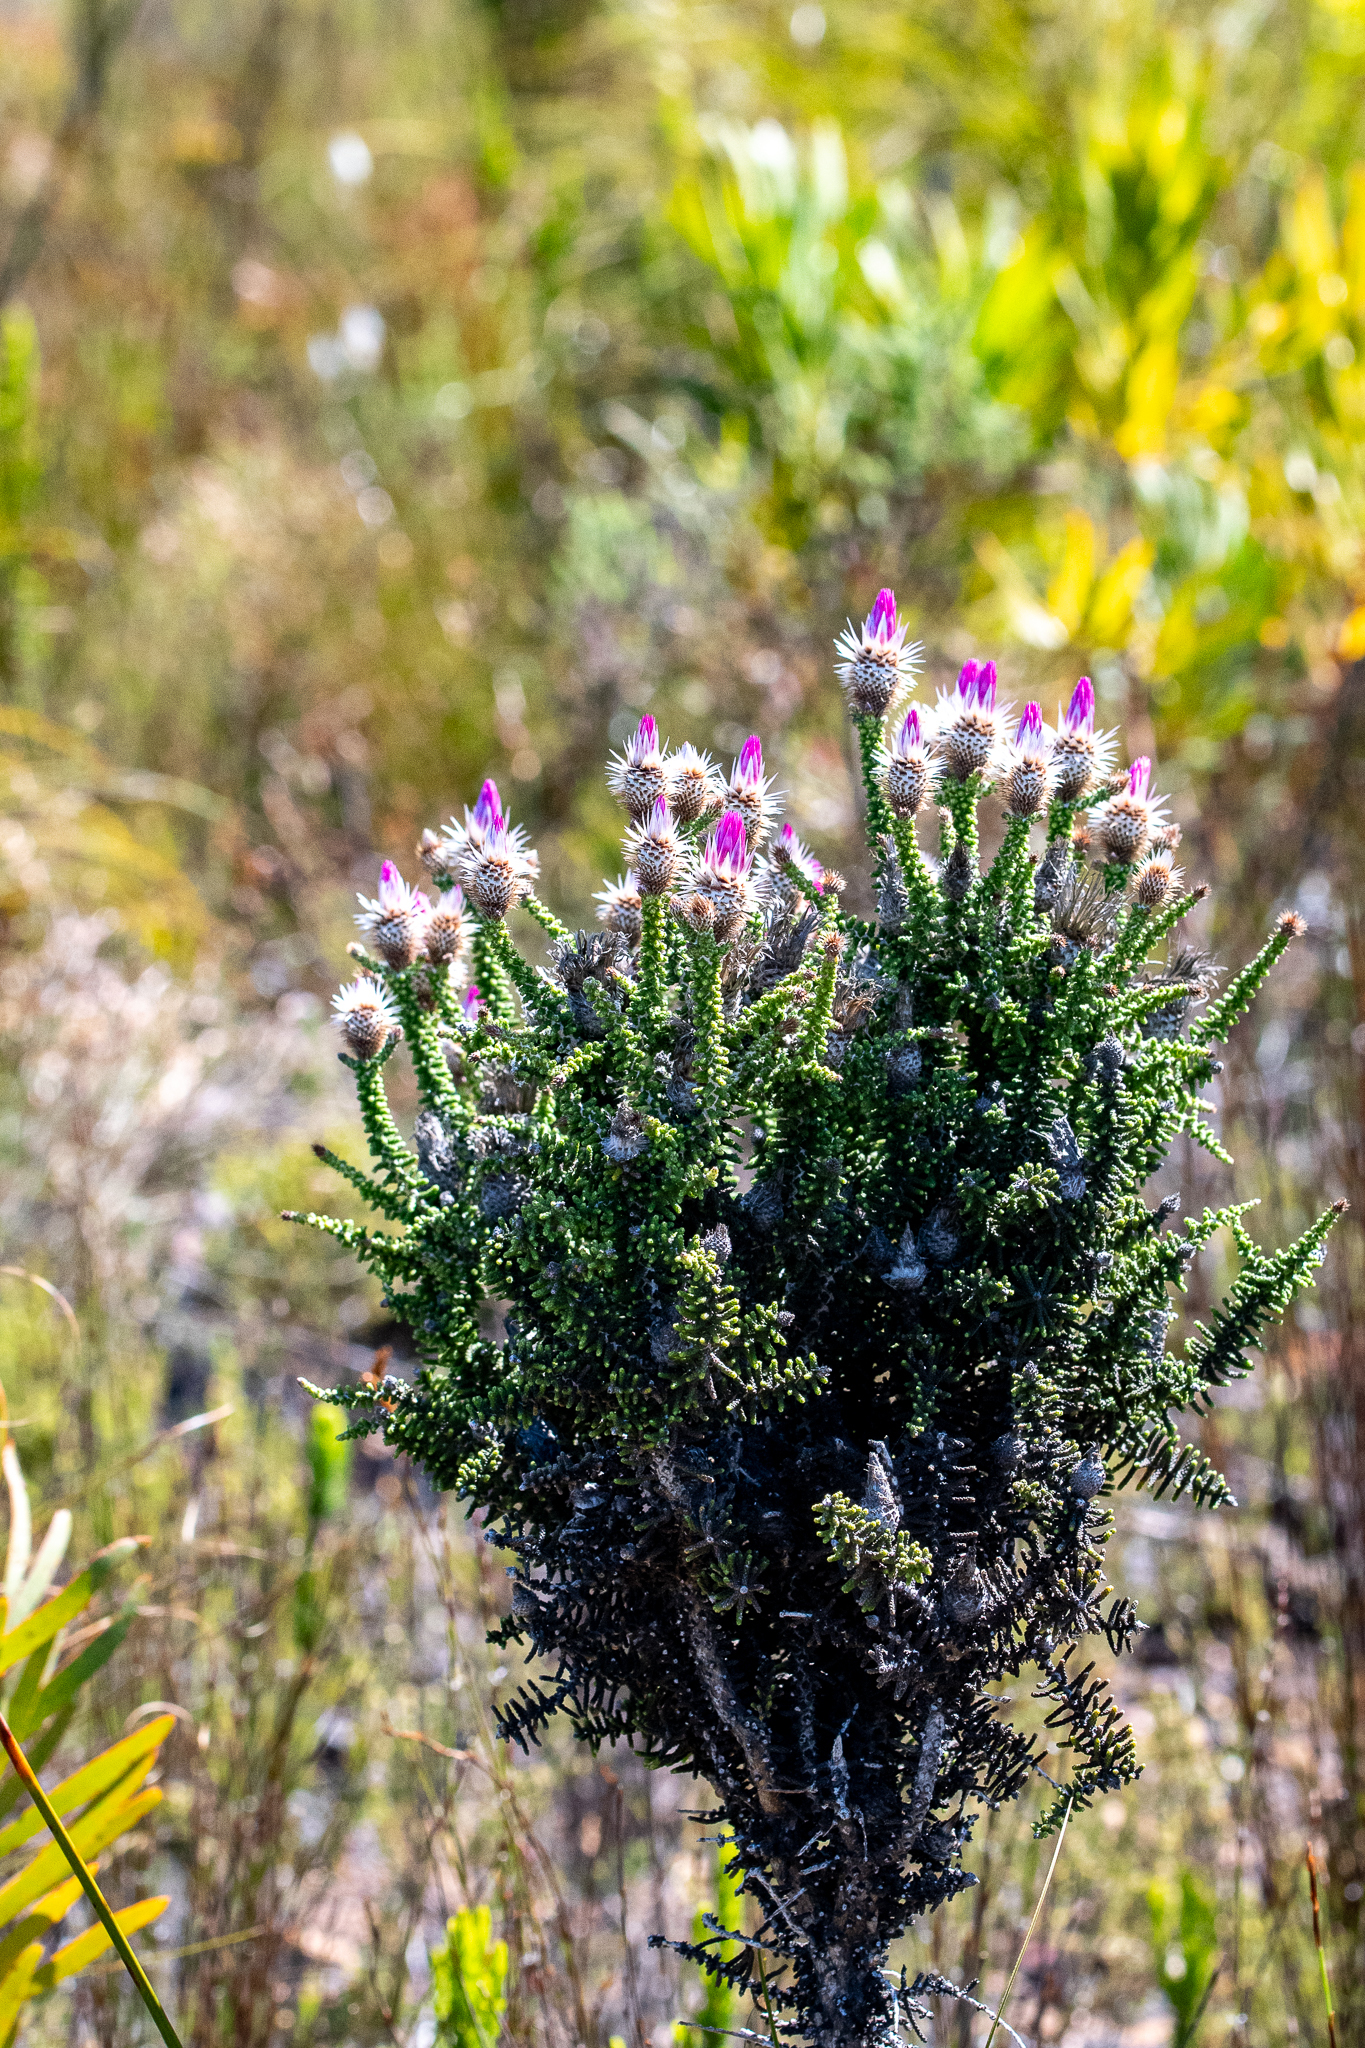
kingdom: Plantae
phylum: Tracheophyta
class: Magnoliopsida
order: Asterales
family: Asteraceae
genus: Phaenocoma
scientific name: Phaenocoma prolifera
